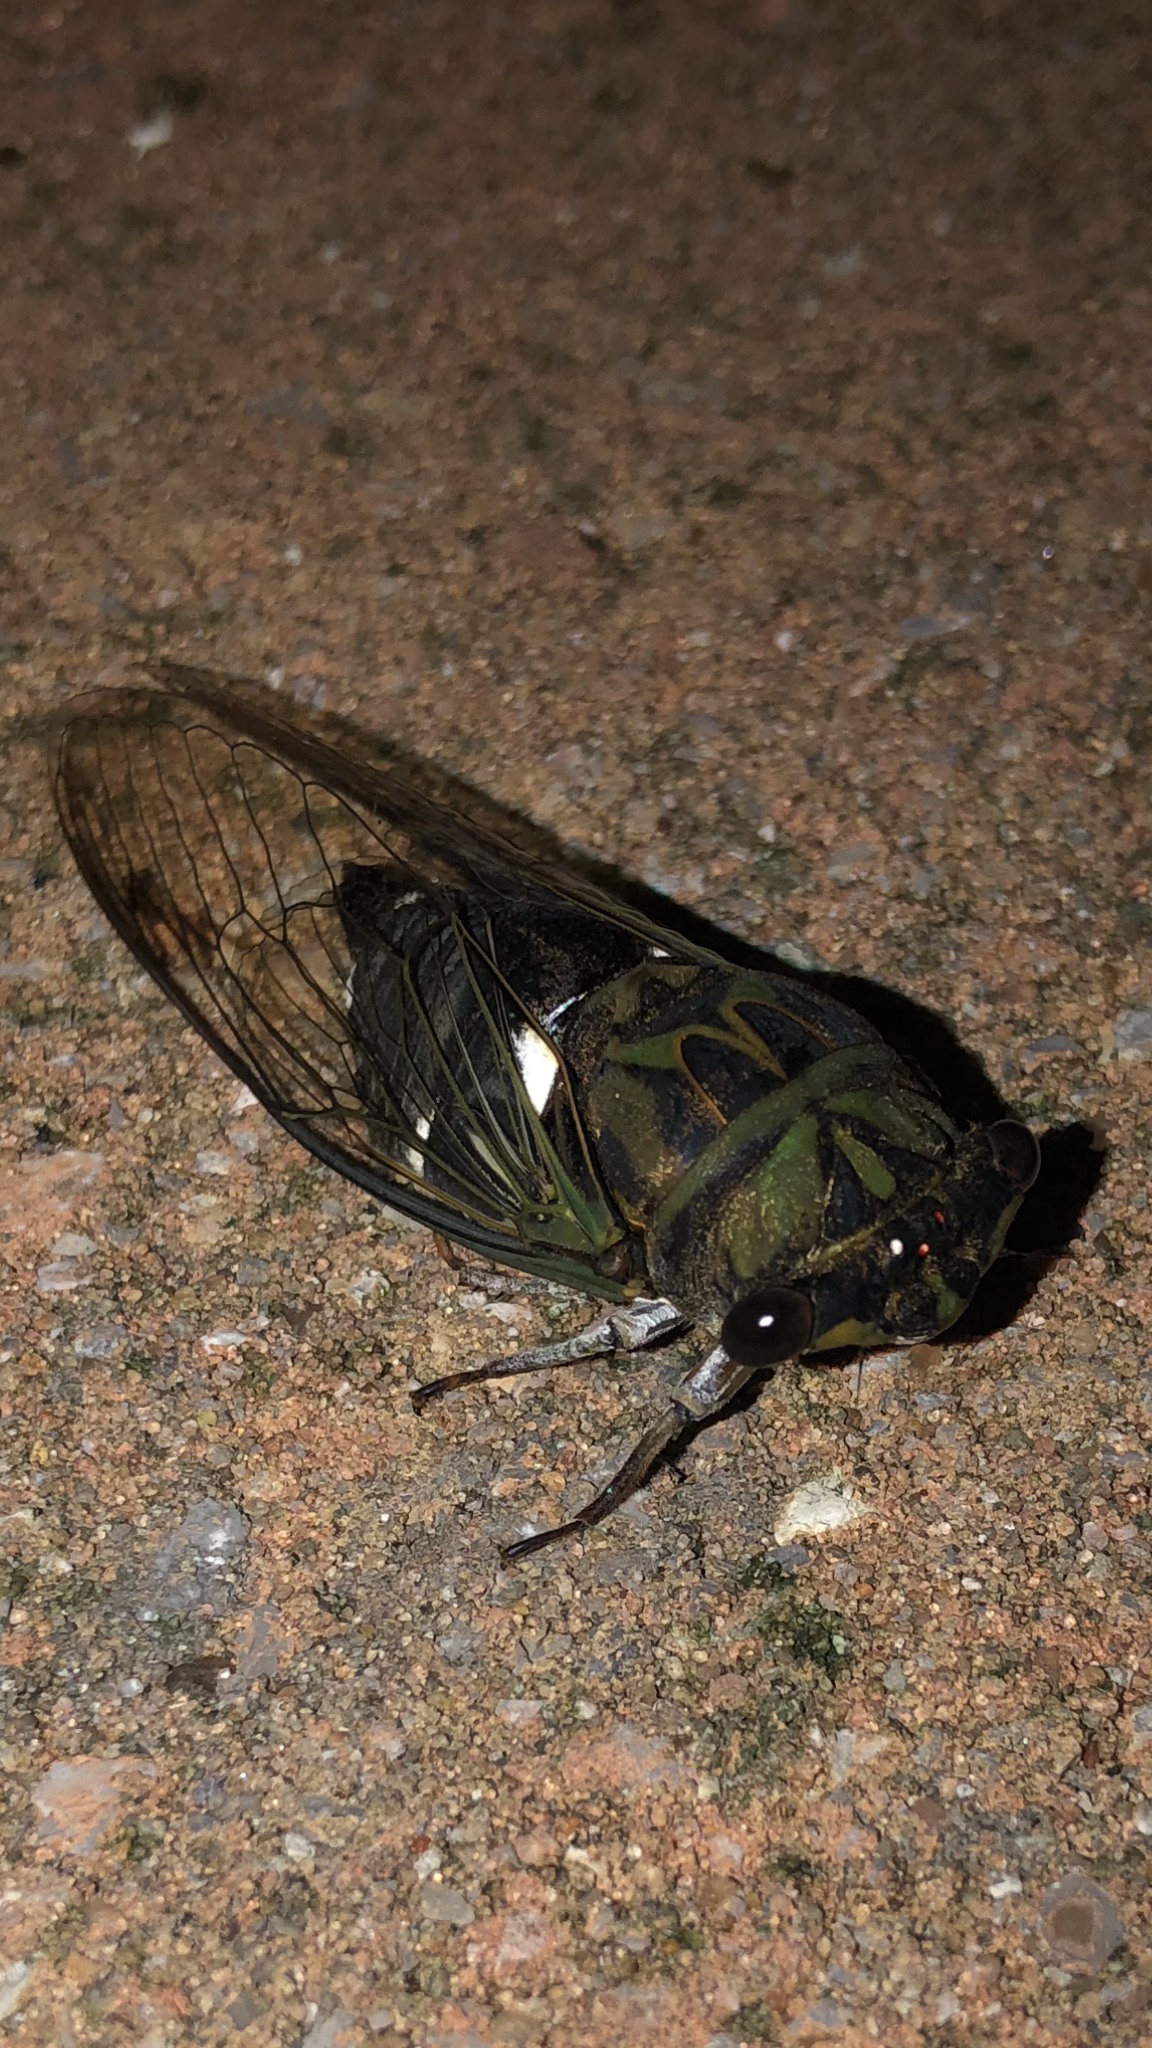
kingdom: Animalia
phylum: Arthropoda
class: Insecta
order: Hemiptera
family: Cicadidae
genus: Neotibicen
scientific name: Neotibicen pruinosus
